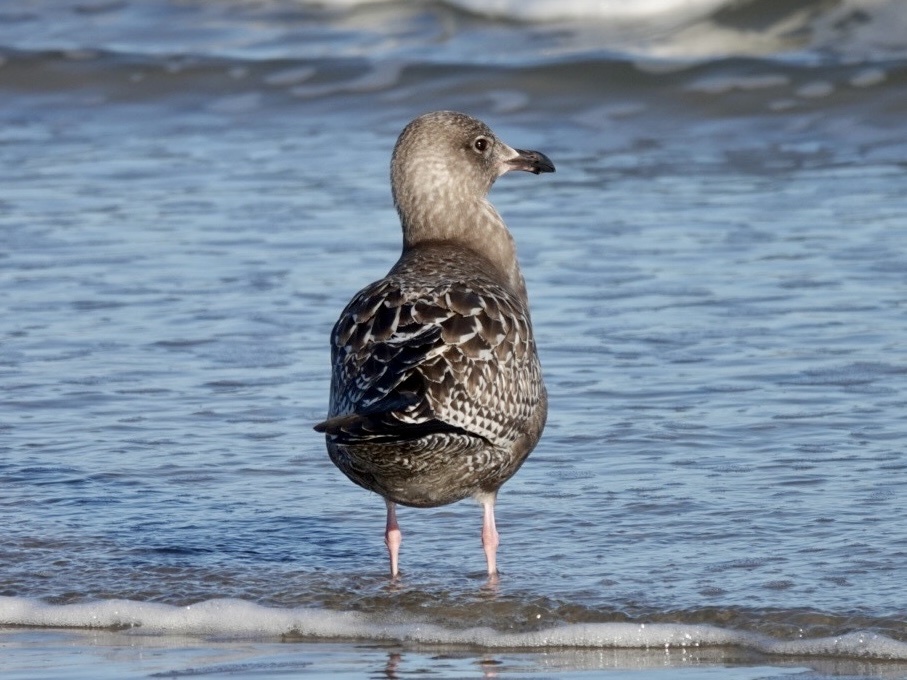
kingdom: Animalia
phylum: Chordata
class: Aves
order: Charadriiformes
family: Laridae
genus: Larus
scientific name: Larus argentatus
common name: Herring gull
